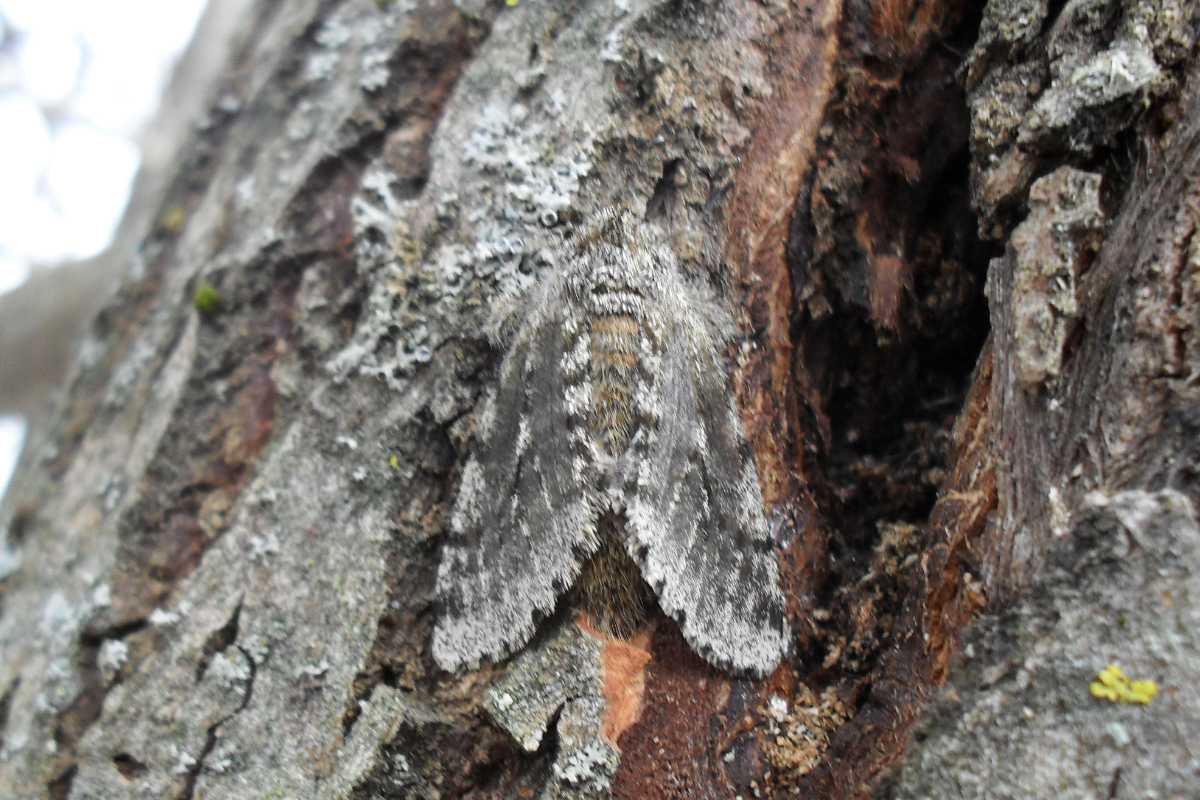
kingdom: Animalia
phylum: Arthropoda
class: Insecta
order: Lepidoptera
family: Geometridae
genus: Lycia
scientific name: Lycia hirtaria
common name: Brindled beauty
